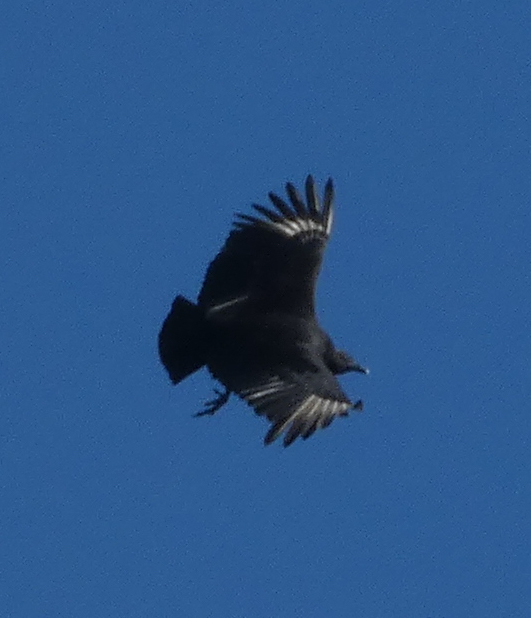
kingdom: Animalia
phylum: Chordata
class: Aves
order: Accipitriformes
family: Cathartidae
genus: Coragyps
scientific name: Coragyps atratus
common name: Black vulture
